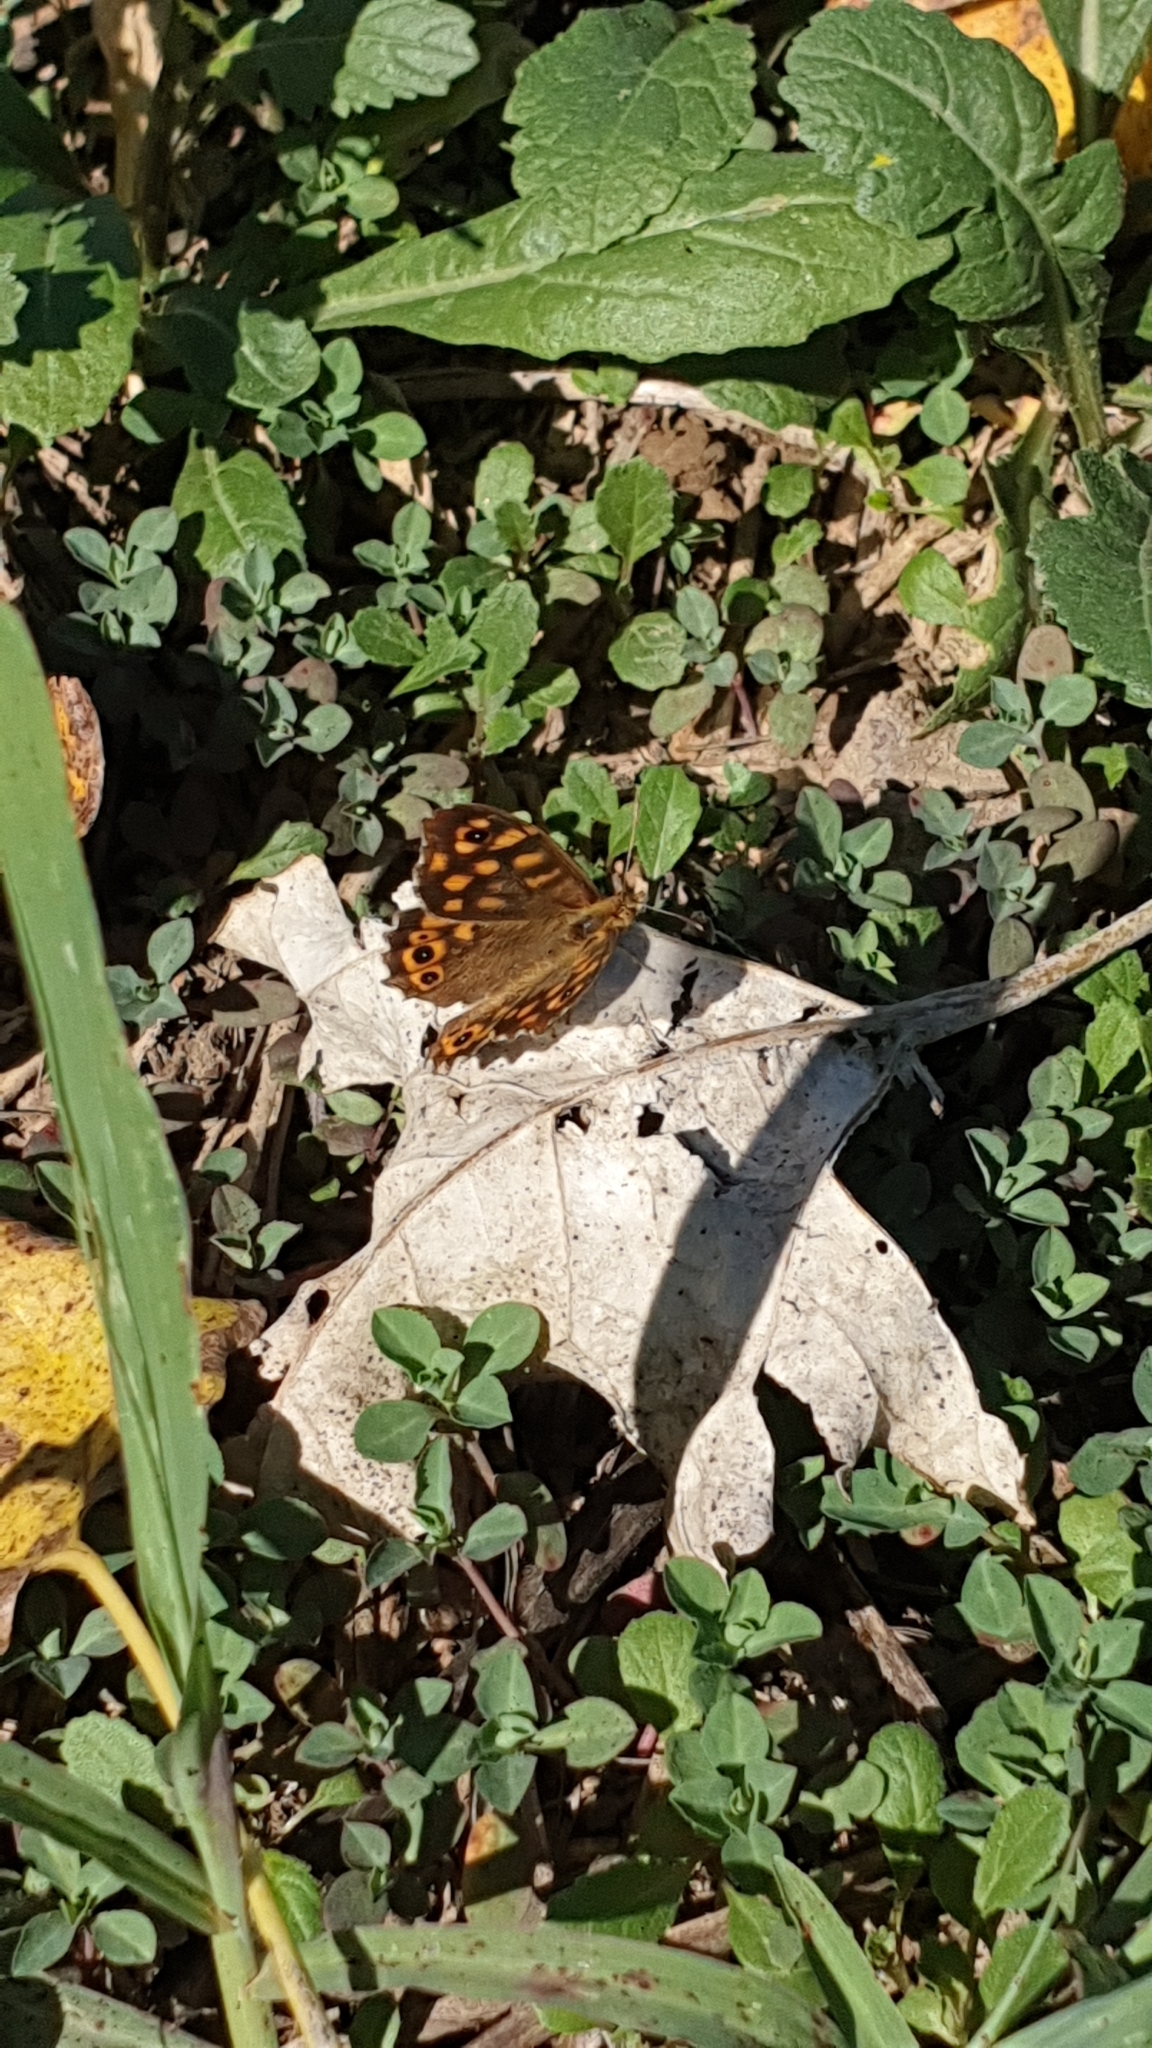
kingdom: Animalia
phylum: Arthropoda
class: Insecta
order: Lepidoptera
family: Nymphalidae
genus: Pararge
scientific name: Pararge aegeria
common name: Speckled wood
